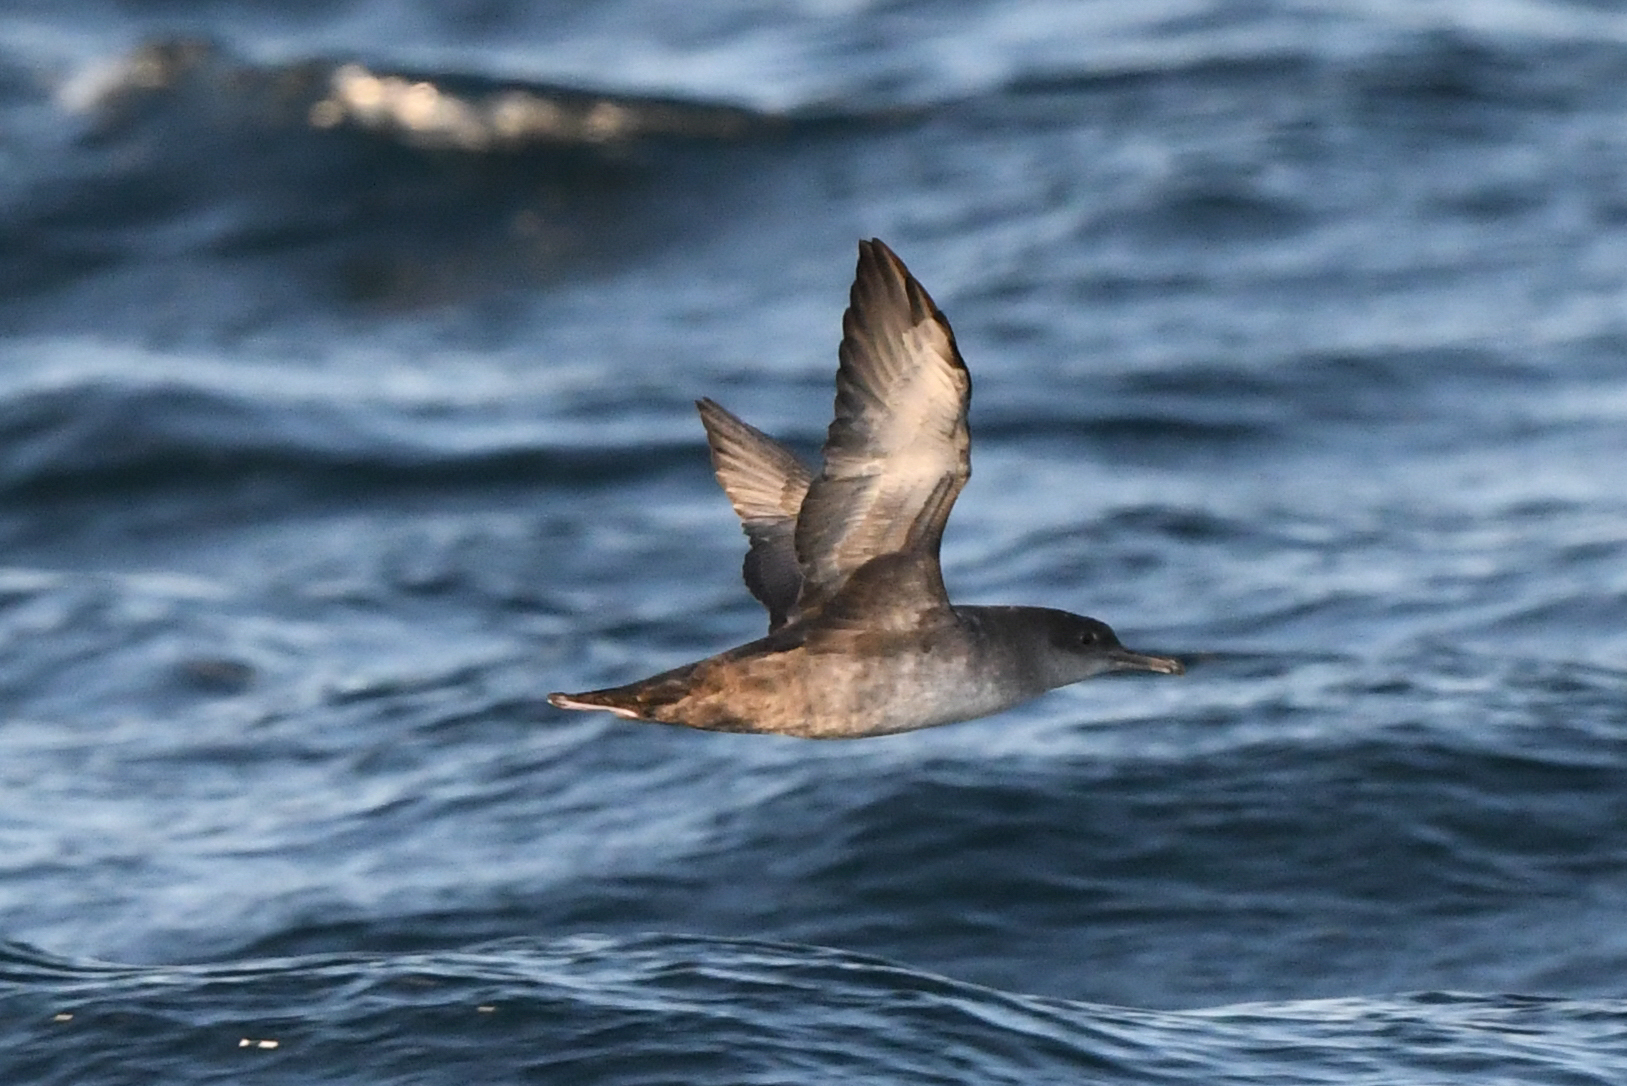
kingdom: Animalia
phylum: Chordata
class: Aves
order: Procellariiformes
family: Procellariidae
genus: Puffinus
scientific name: Puffinus mauretanicus
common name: Balearic shearwater
